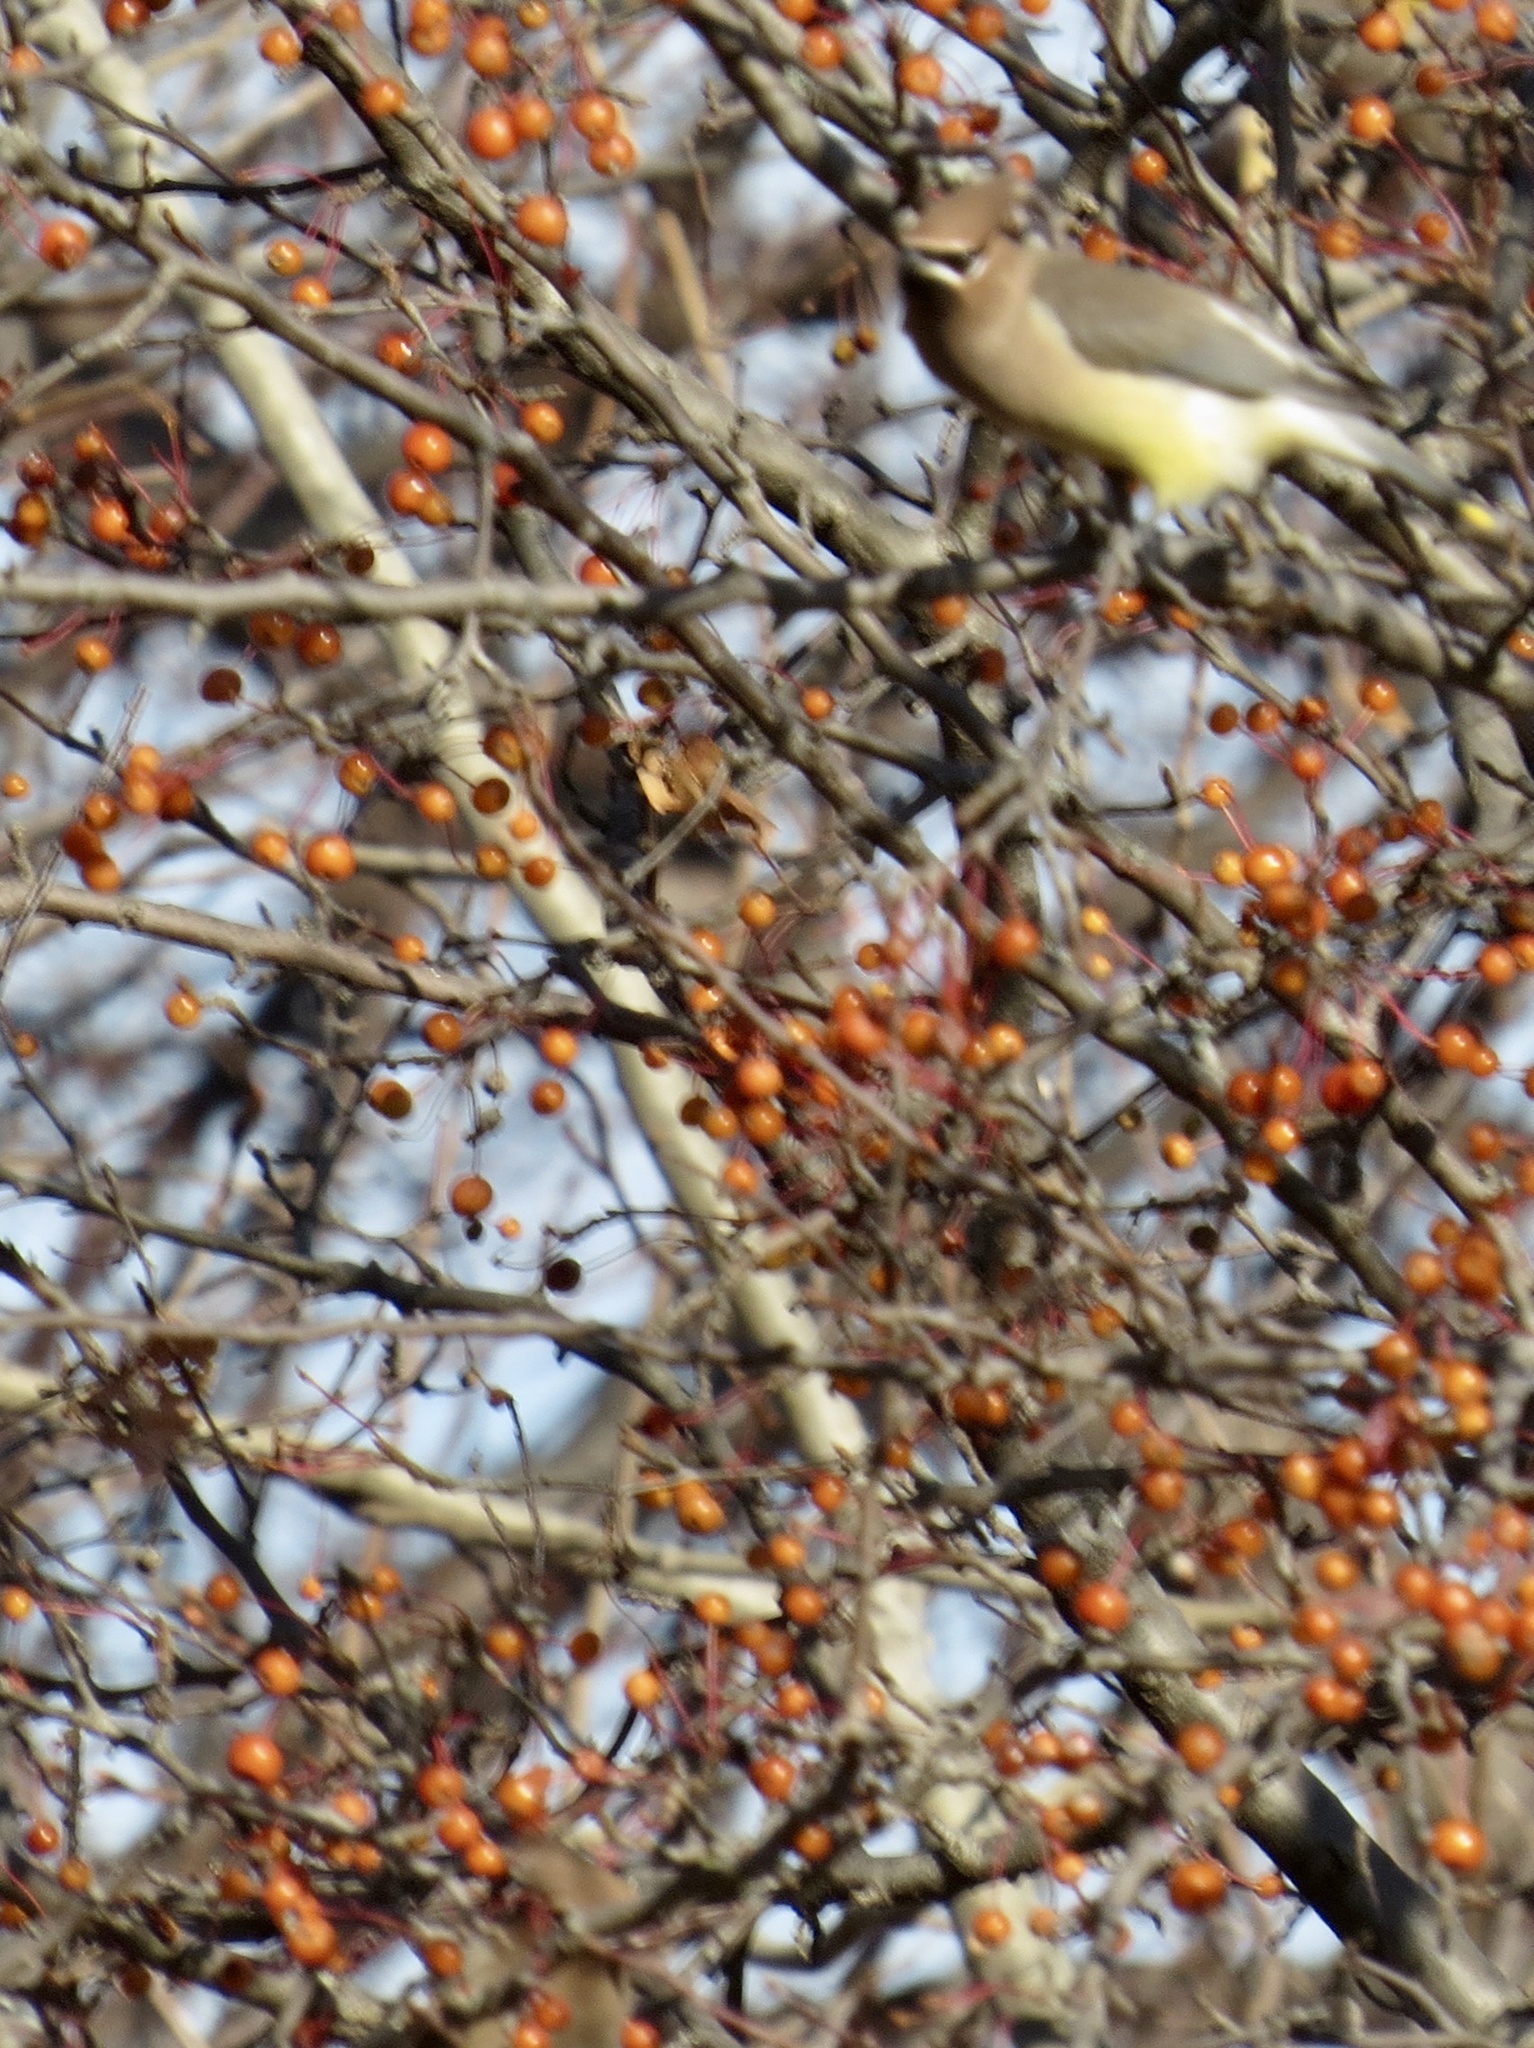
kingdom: Animalia
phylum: Chordata
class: Aves
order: Passeriformes
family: Bombycillidae
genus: Bombycilla
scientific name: Bombycilla cedrorum
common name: Cedar waxwing
